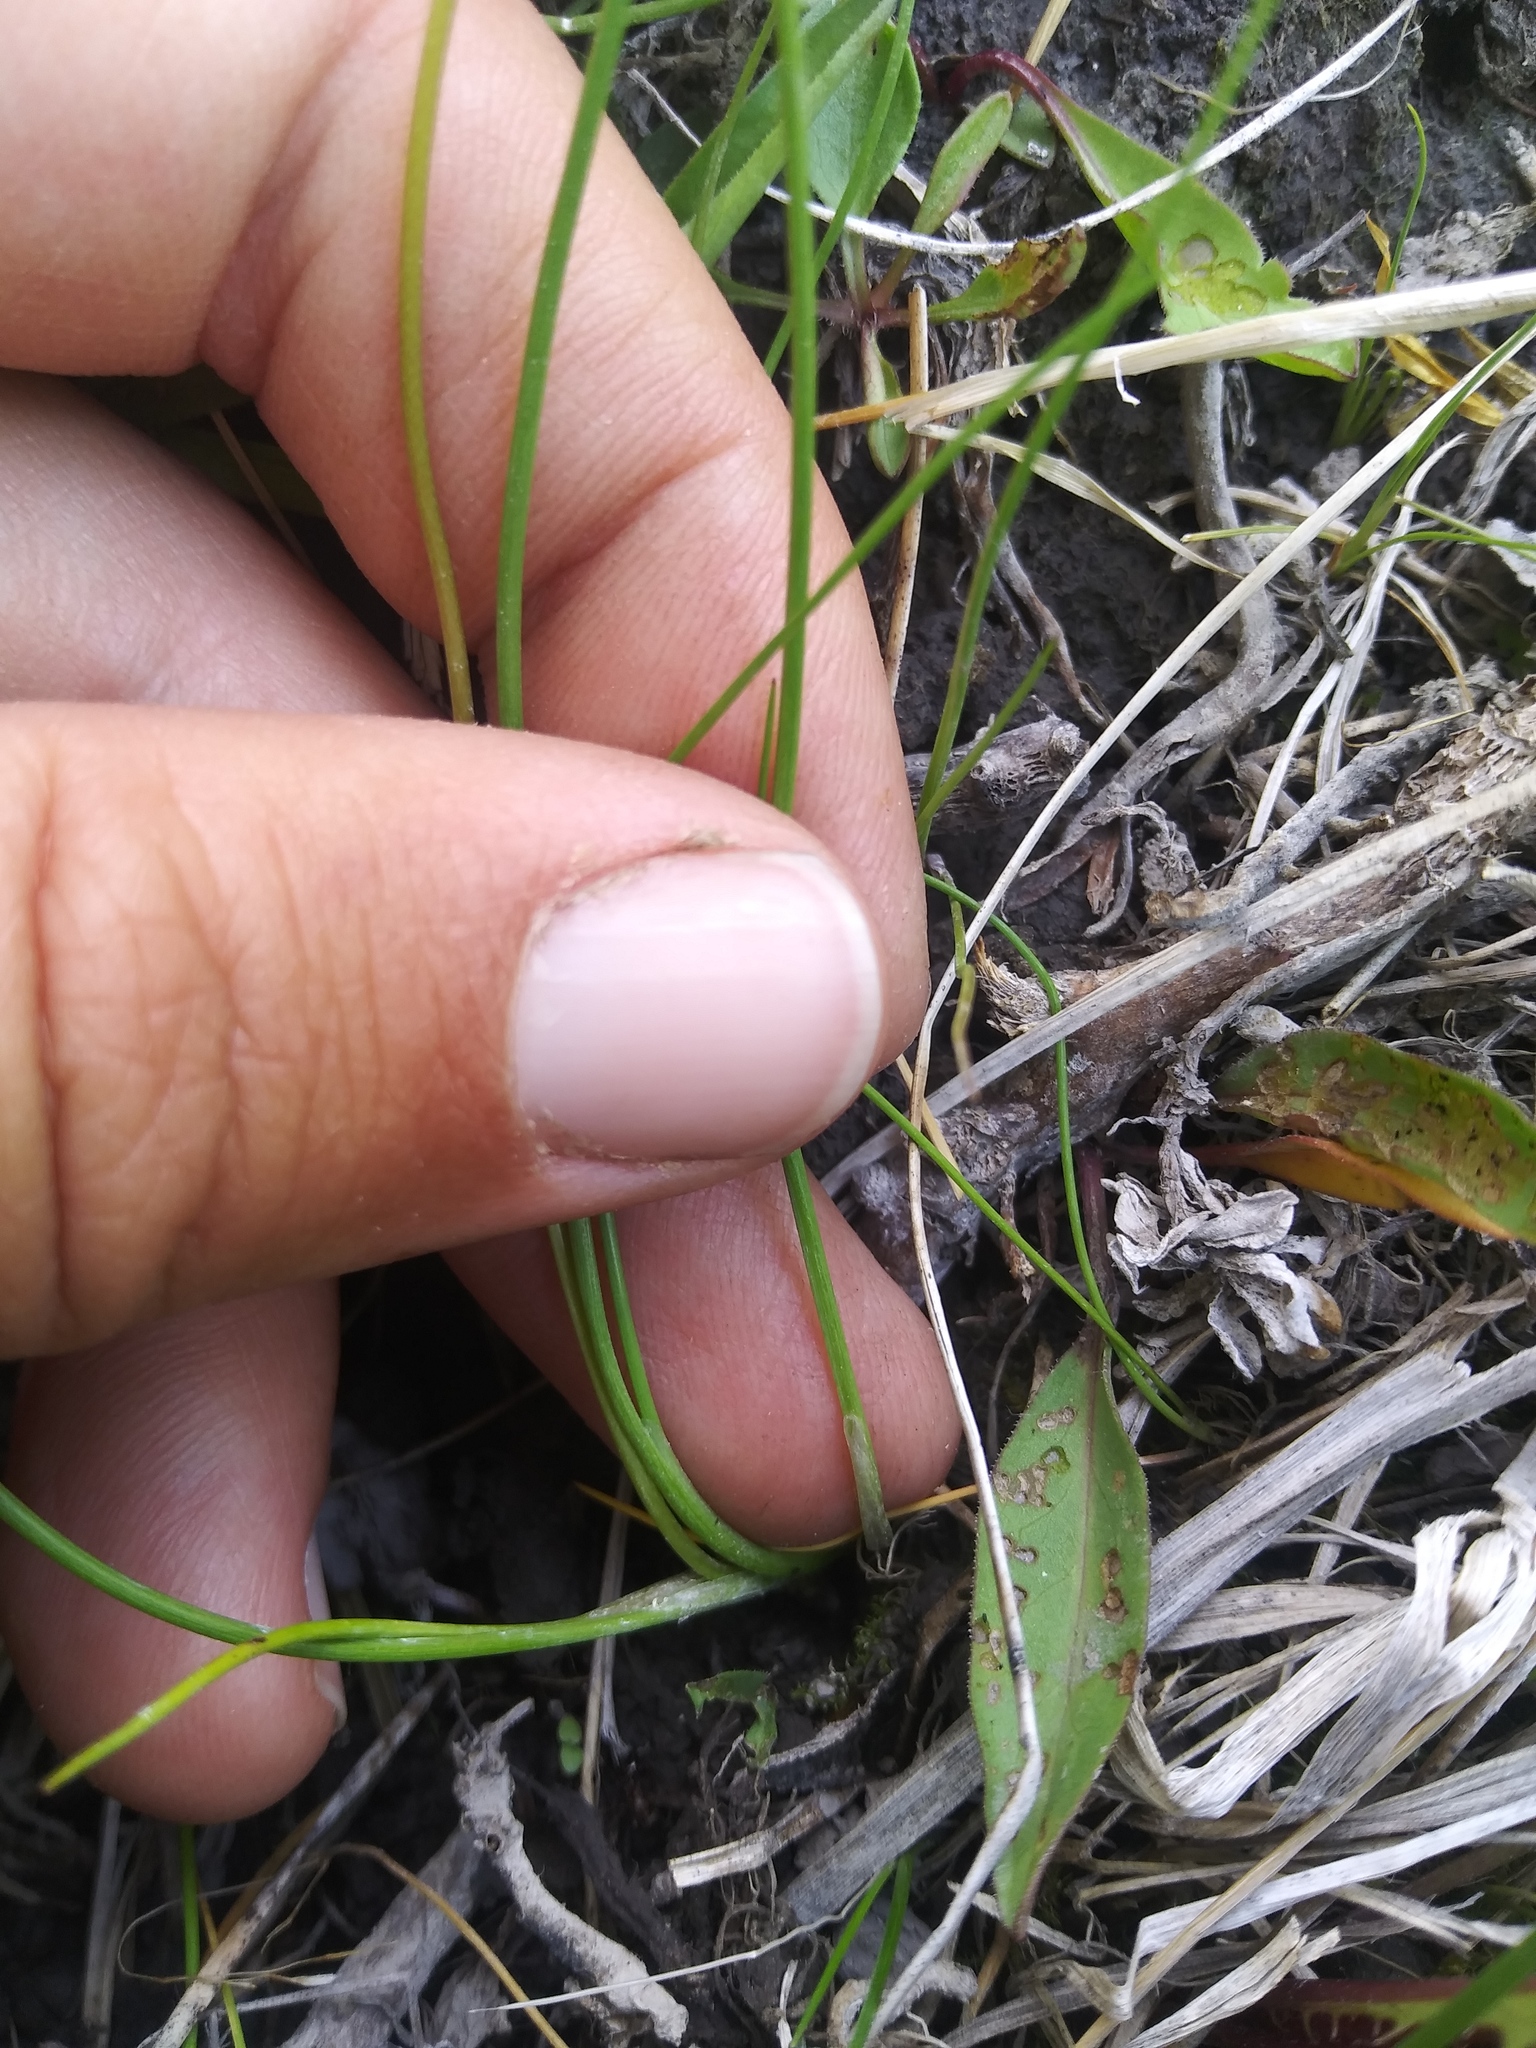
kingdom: Plantae
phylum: Tracheophyta
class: Liliopsida
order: Alismatales
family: Juncaginaceae
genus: Triglochin
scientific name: Triglochin palustris
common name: Marsh arrowgrass
